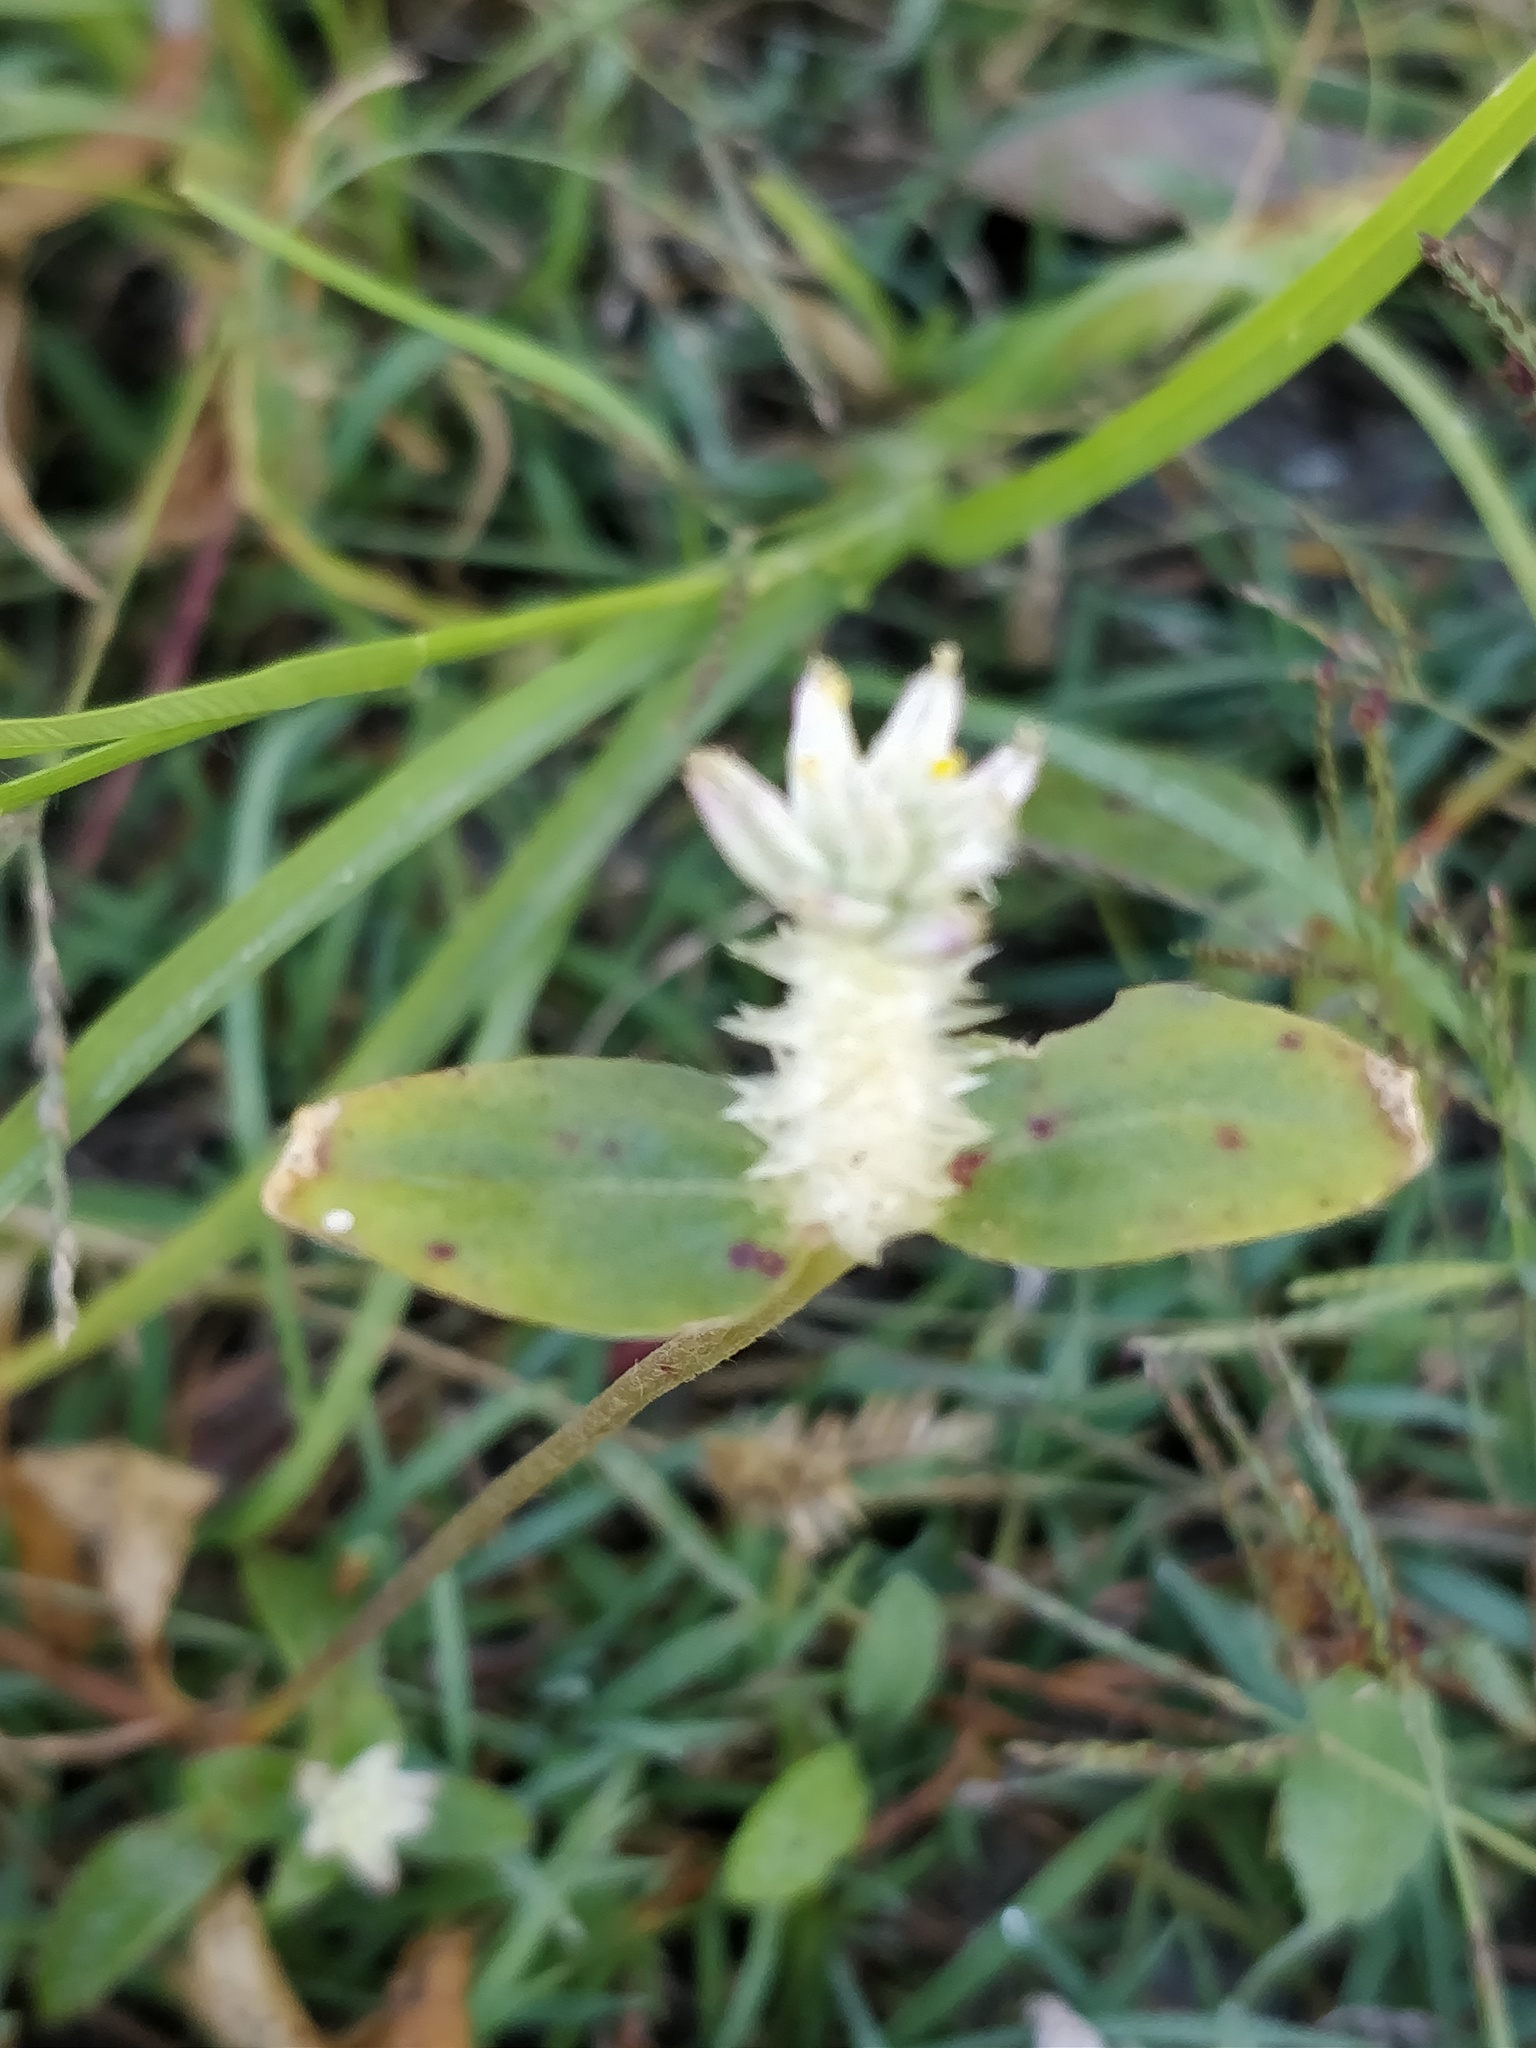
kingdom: Plantae
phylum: Tracheophyta
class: Magnoliopsida
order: Caryophyllales
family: Amaranthaceae
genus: Gomphrena
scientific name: Gomphrena celosioides
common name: Gomphrena-weed
